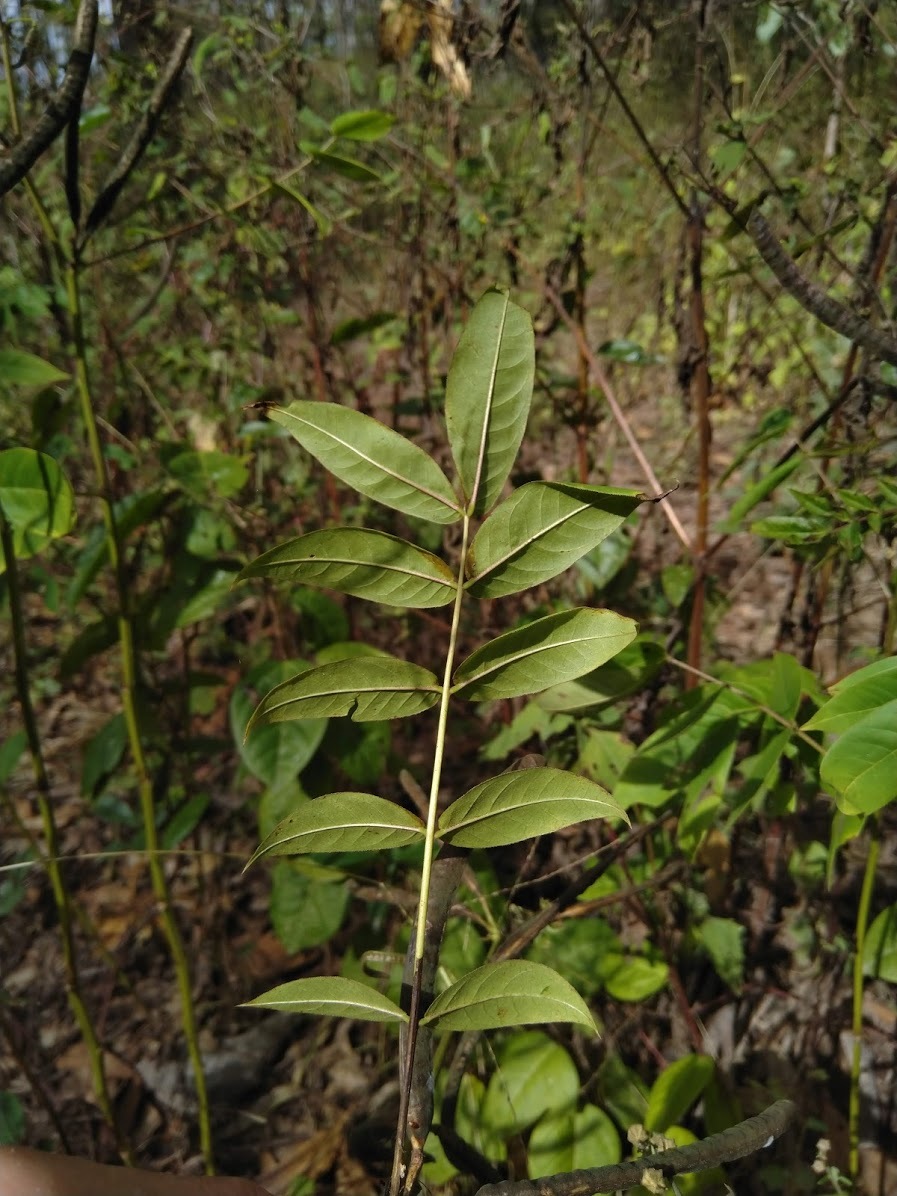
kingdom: Plantae
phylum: Tracheophyta
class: Magnoliopsida
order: Fabales
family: Fabaceae
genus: Senna
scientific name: Senna occidentalis
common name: Septicweed
